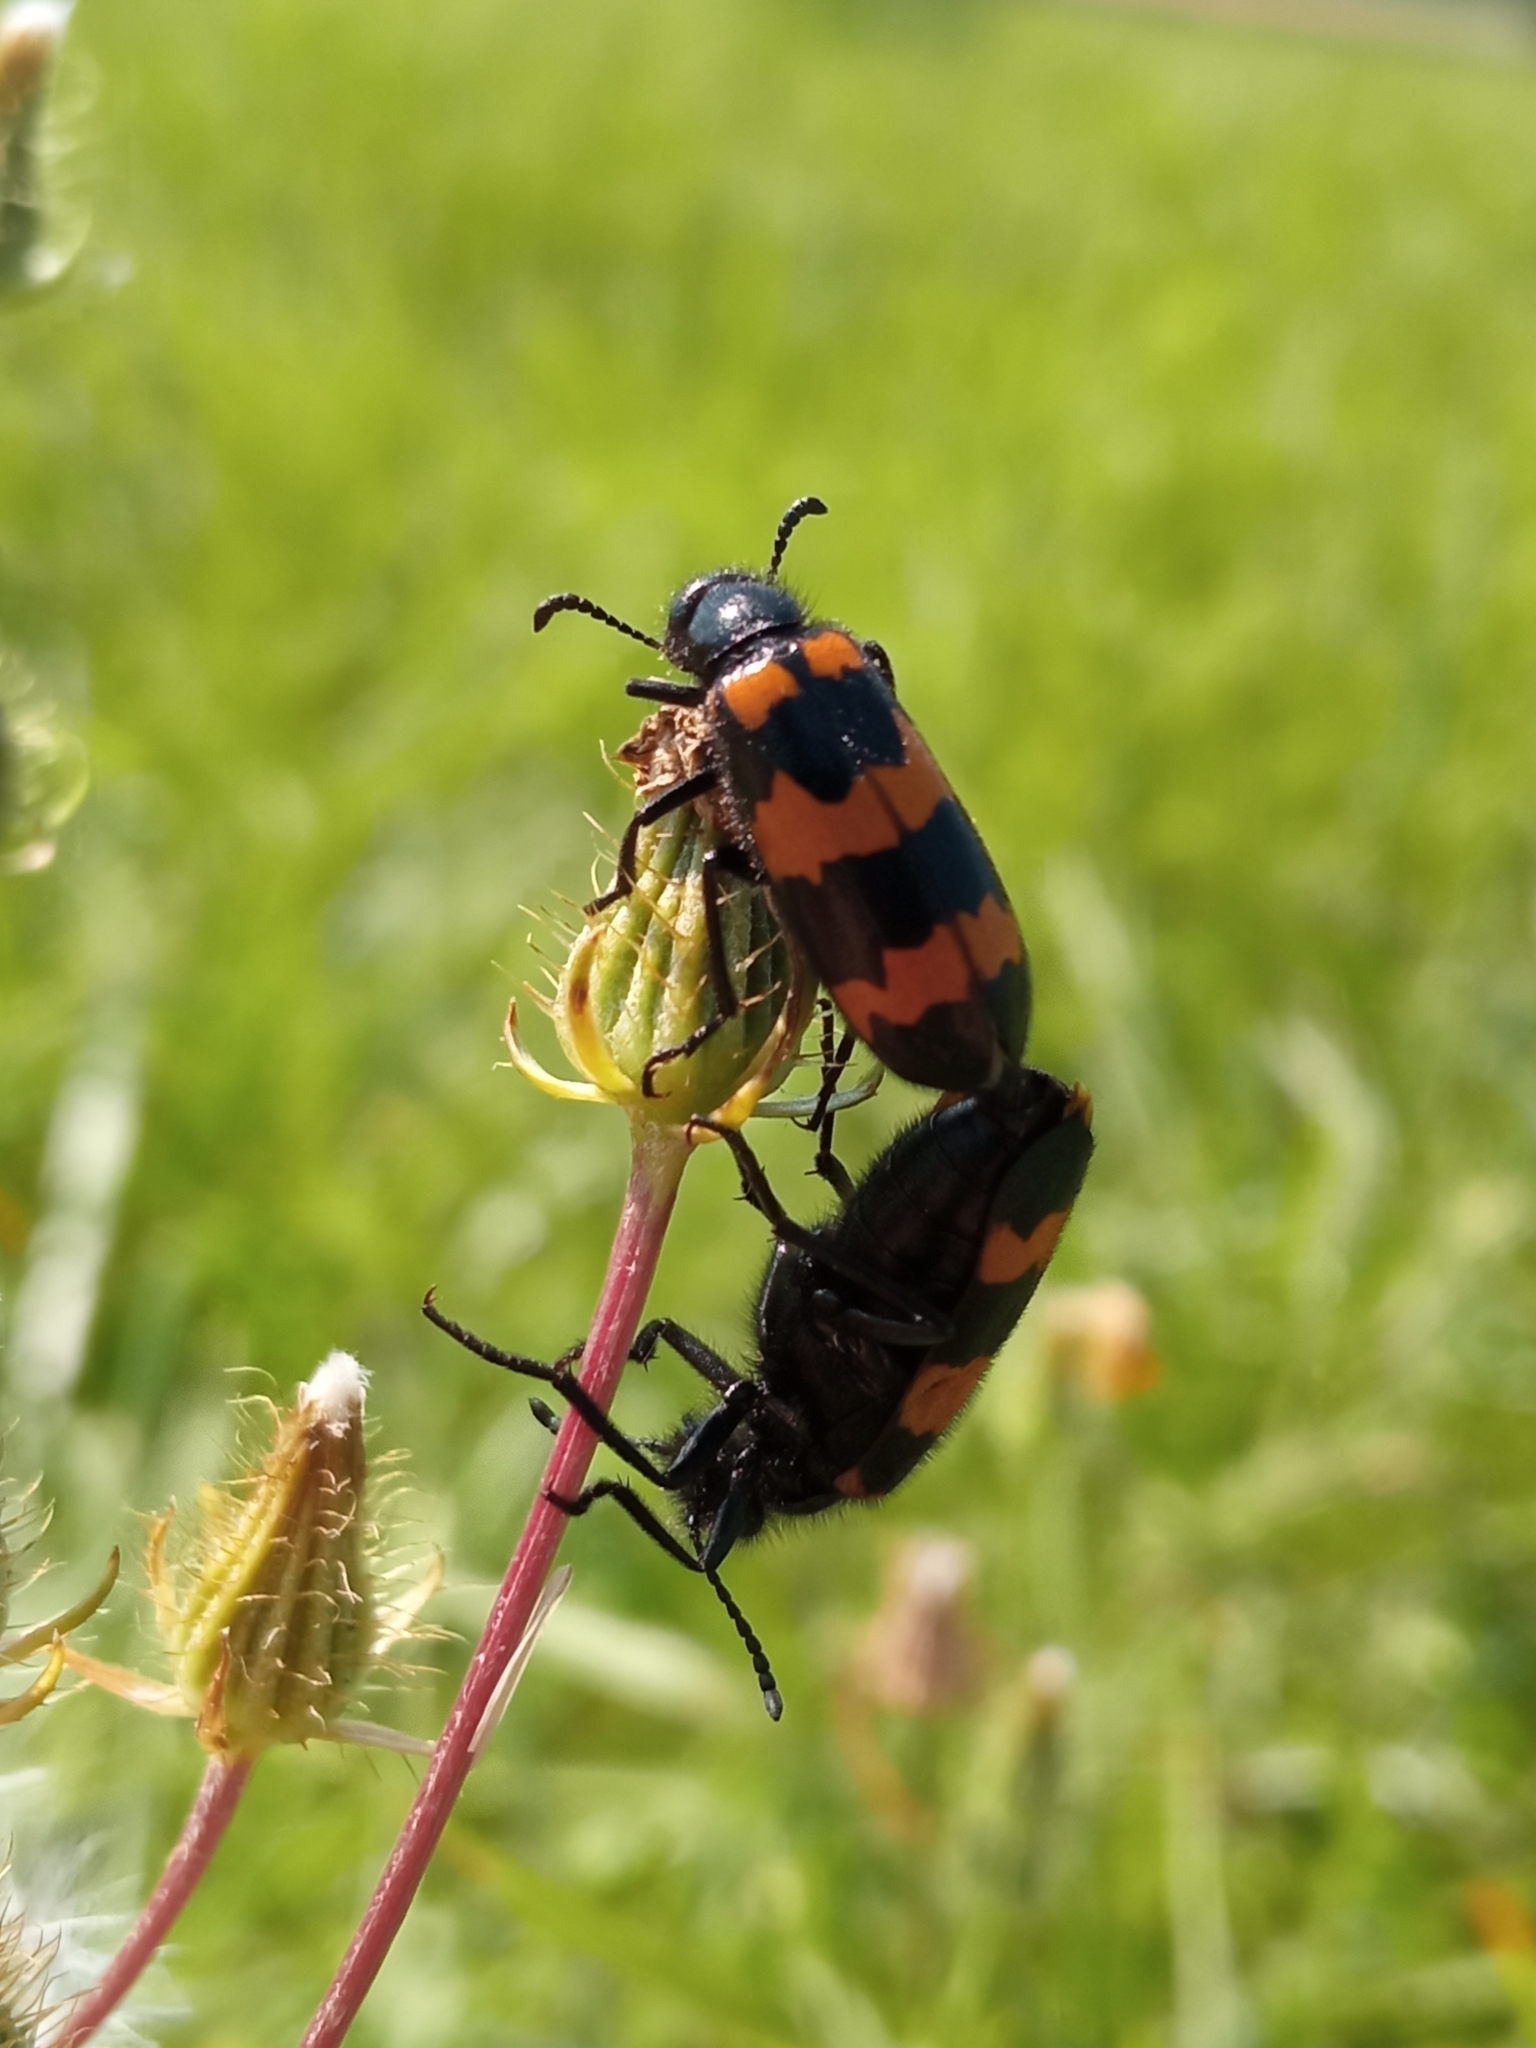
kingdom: Animalia
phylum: Arthropoda
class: Insecta
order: Coleoptera
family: Meloidae
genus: Mylabris
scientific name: Mylabris variabilis
